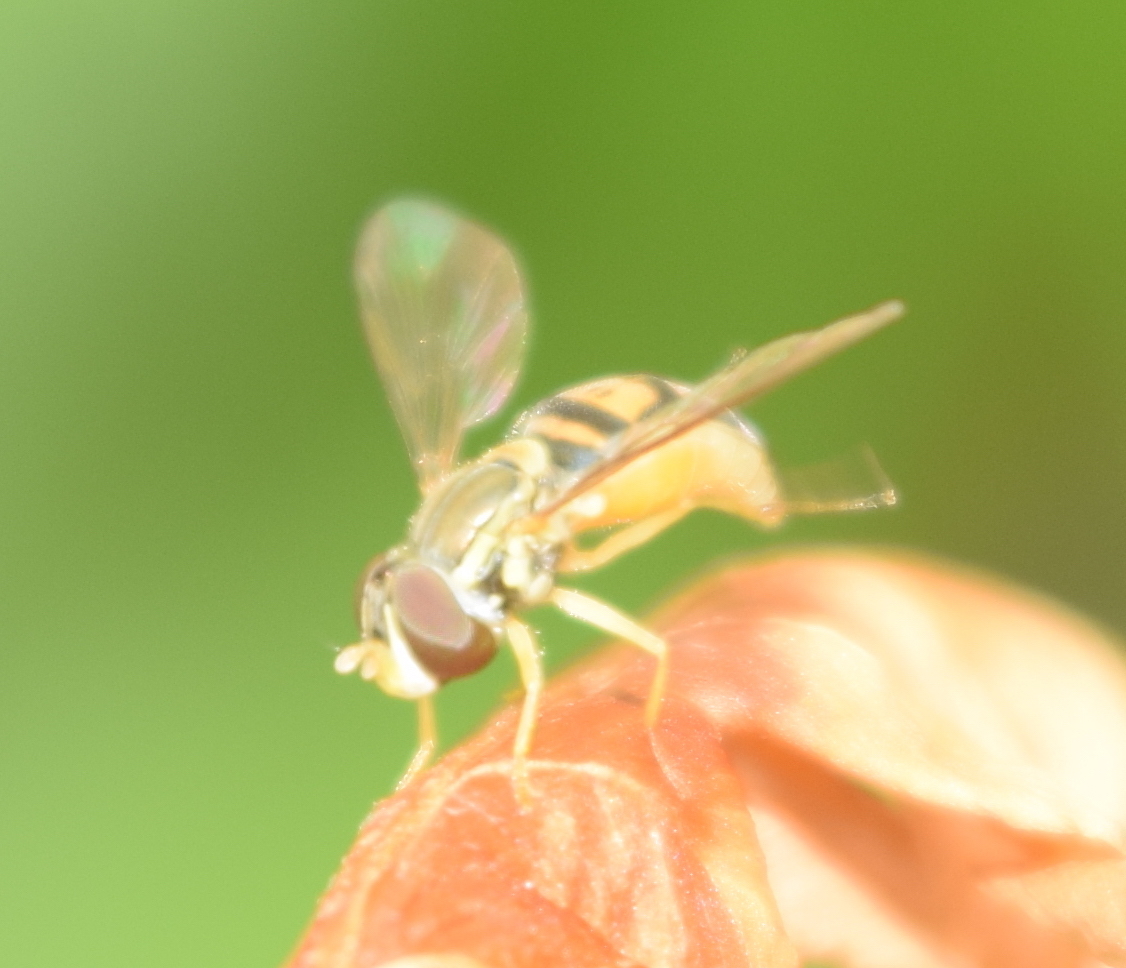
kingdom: Animalia
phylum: Arthropoda
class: Insecta
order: Diptera
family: Syrphidae
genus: Toxomerus
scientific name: Toxomerus marginatus
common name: Syrphid fly
